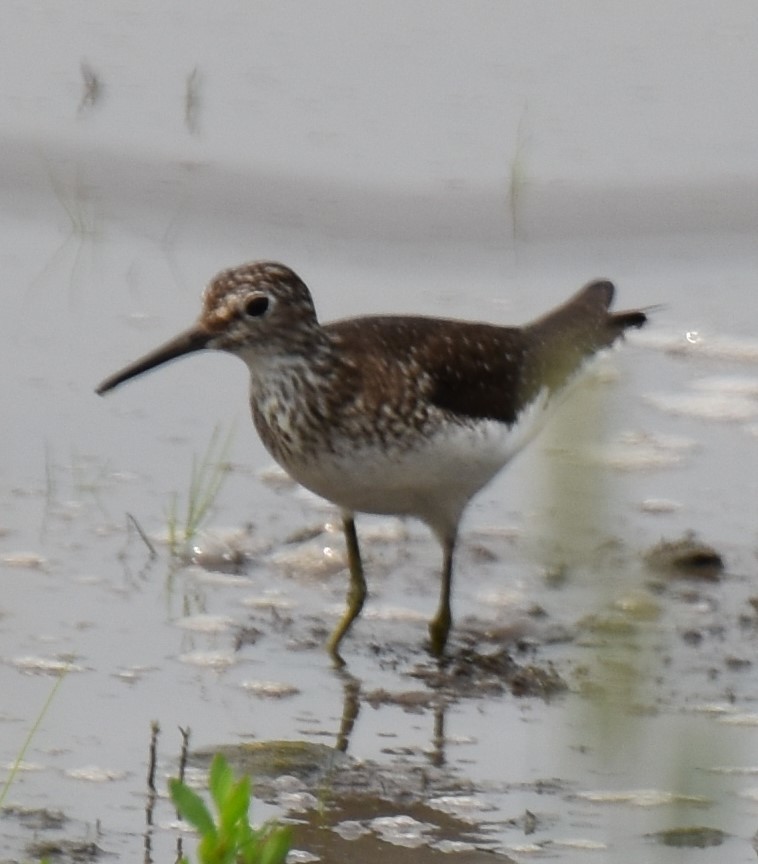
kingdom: Animalia
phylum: Chordata
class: Aves
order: Charadriiformes
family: Scolopacidae
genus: Tringa
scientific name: Tringa solitaria
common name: Solitary sandpiper
